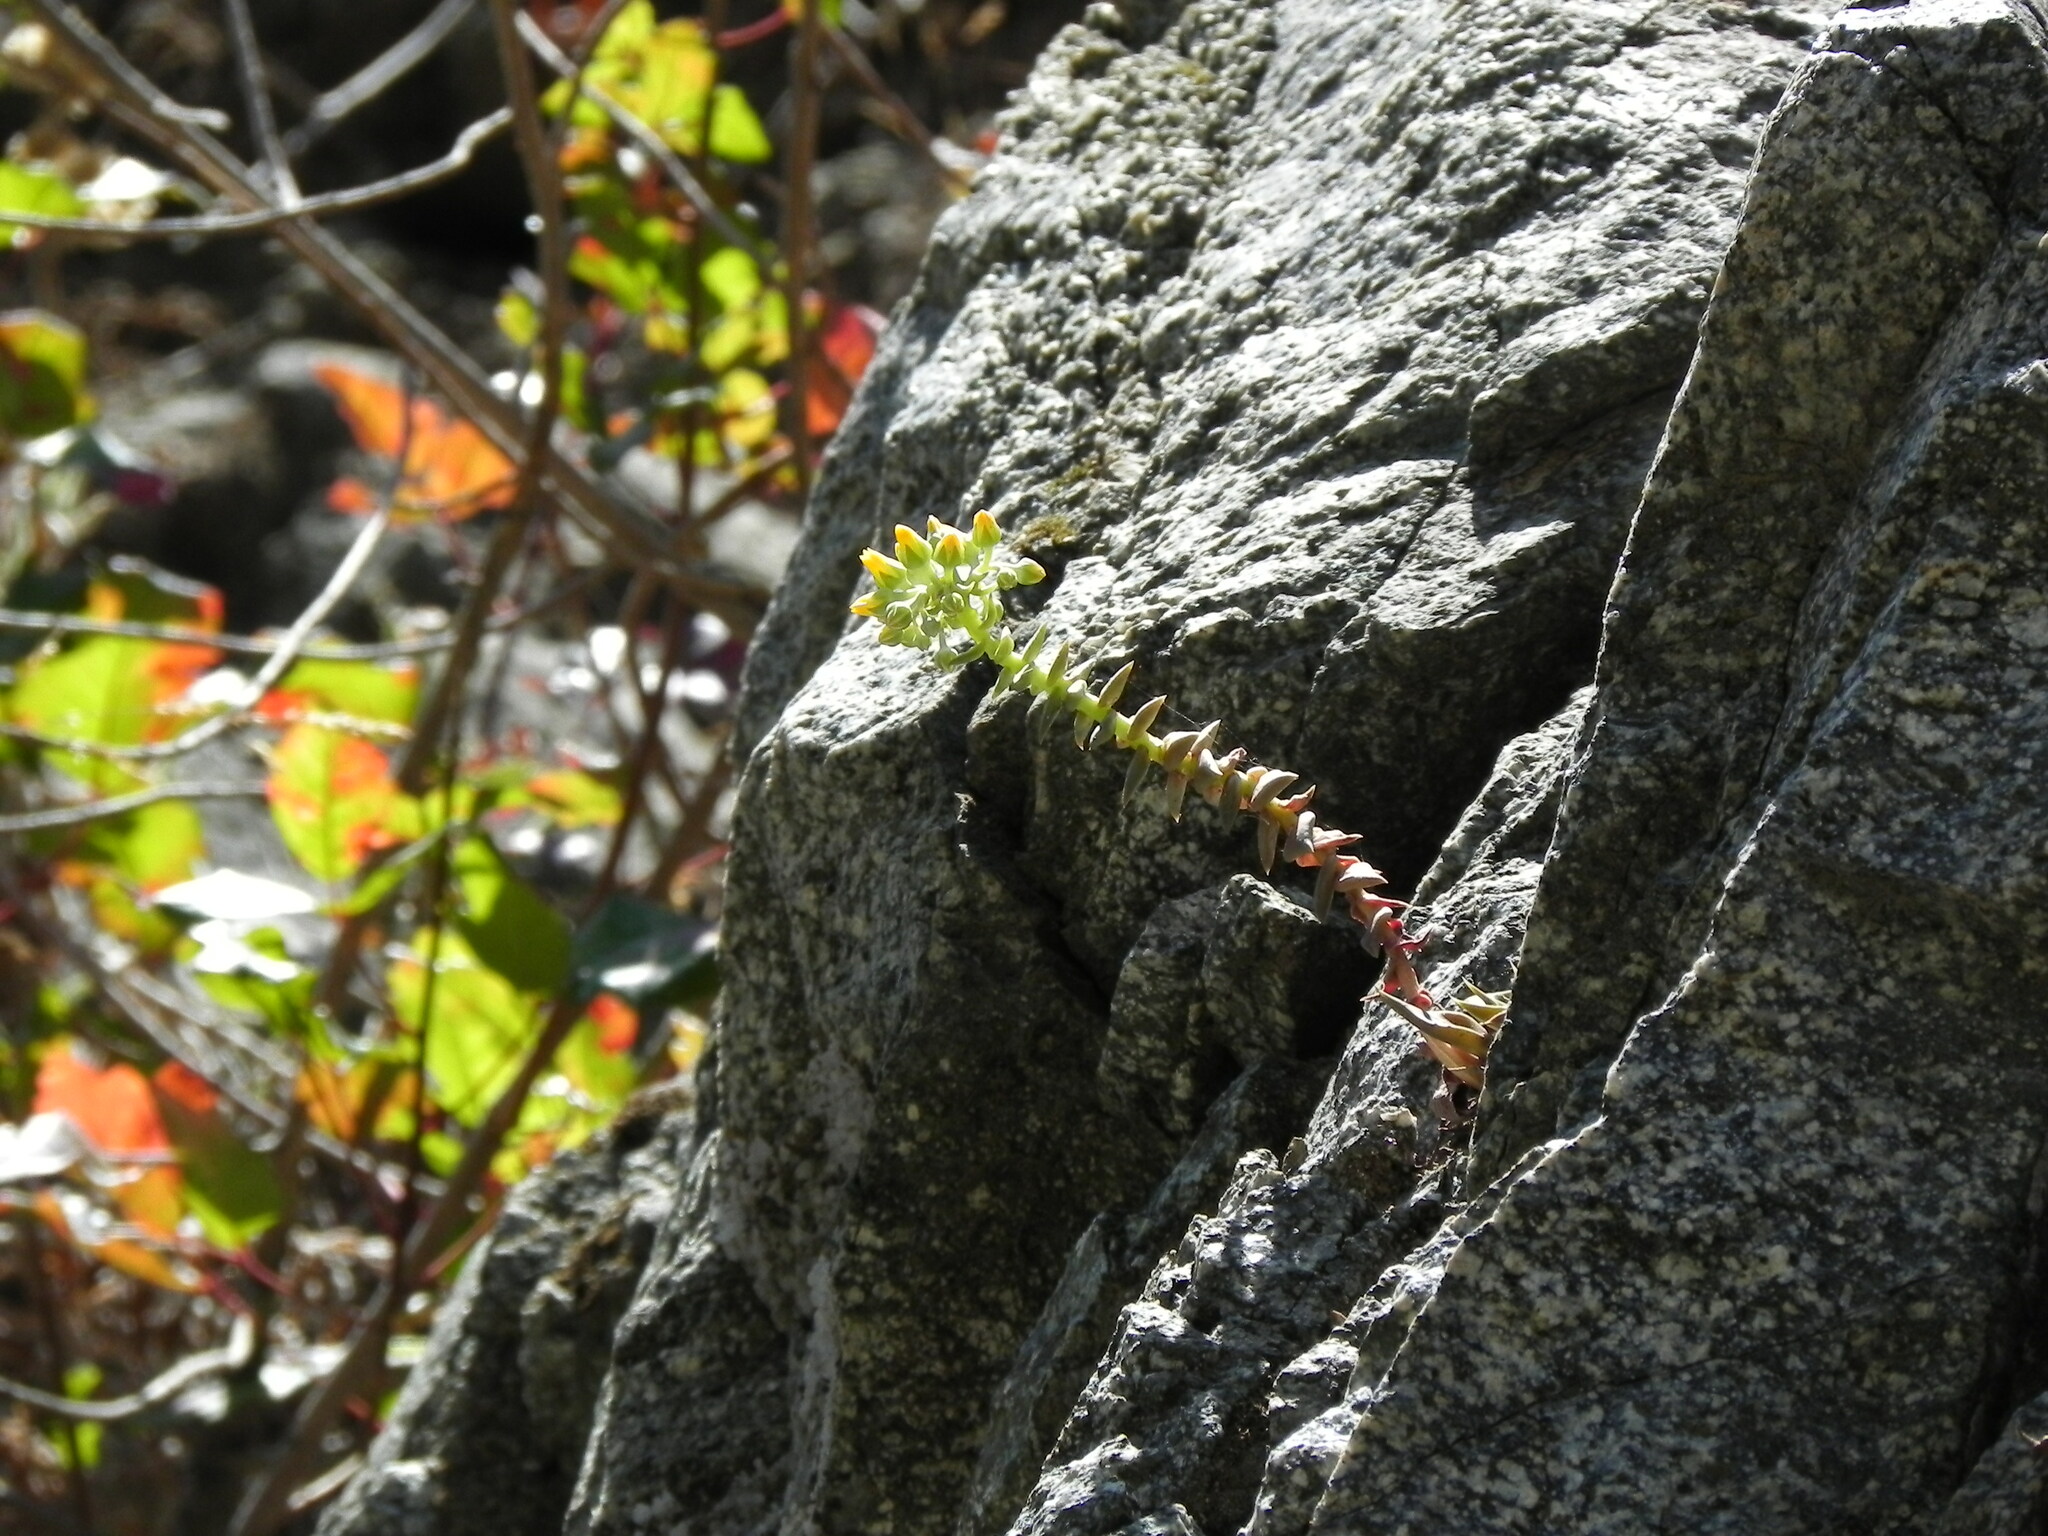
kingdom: Plantae
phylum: Tracheophyta
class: Magnoliopsida
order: Saxifragales
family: Crassulaceae
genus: Dudleya
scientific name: Dudleya cymosa
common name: Canyon dudleya
